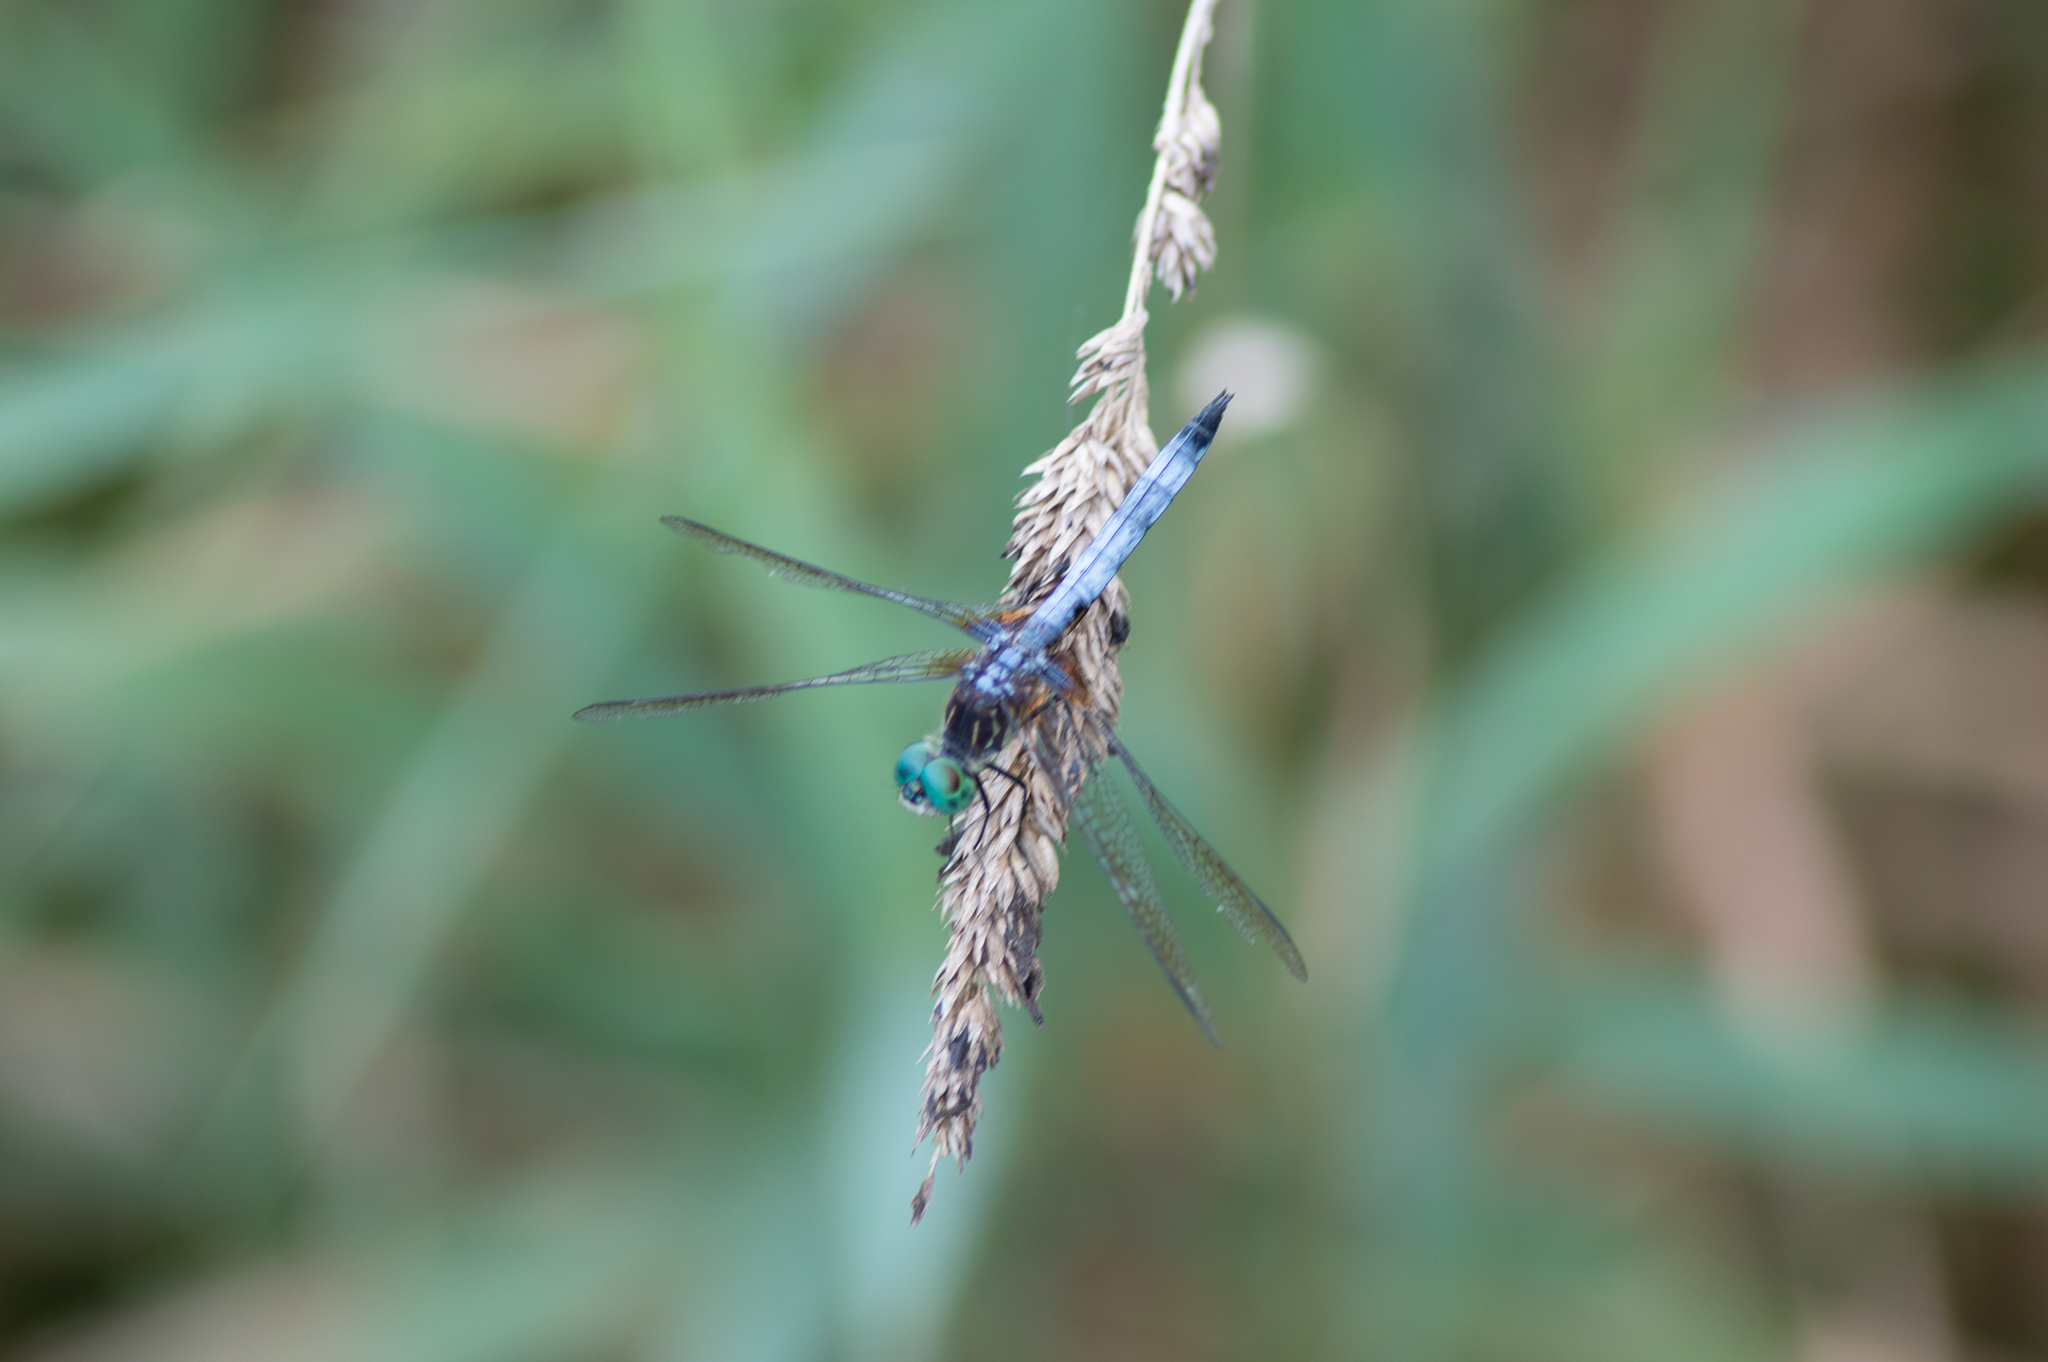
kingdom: Animalia
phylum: Arthropoda
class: Insecta
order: Odonata
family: Libellulidae
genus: Pachydiplax
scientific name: Pachydiplax longipennis
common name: Blue dasher
